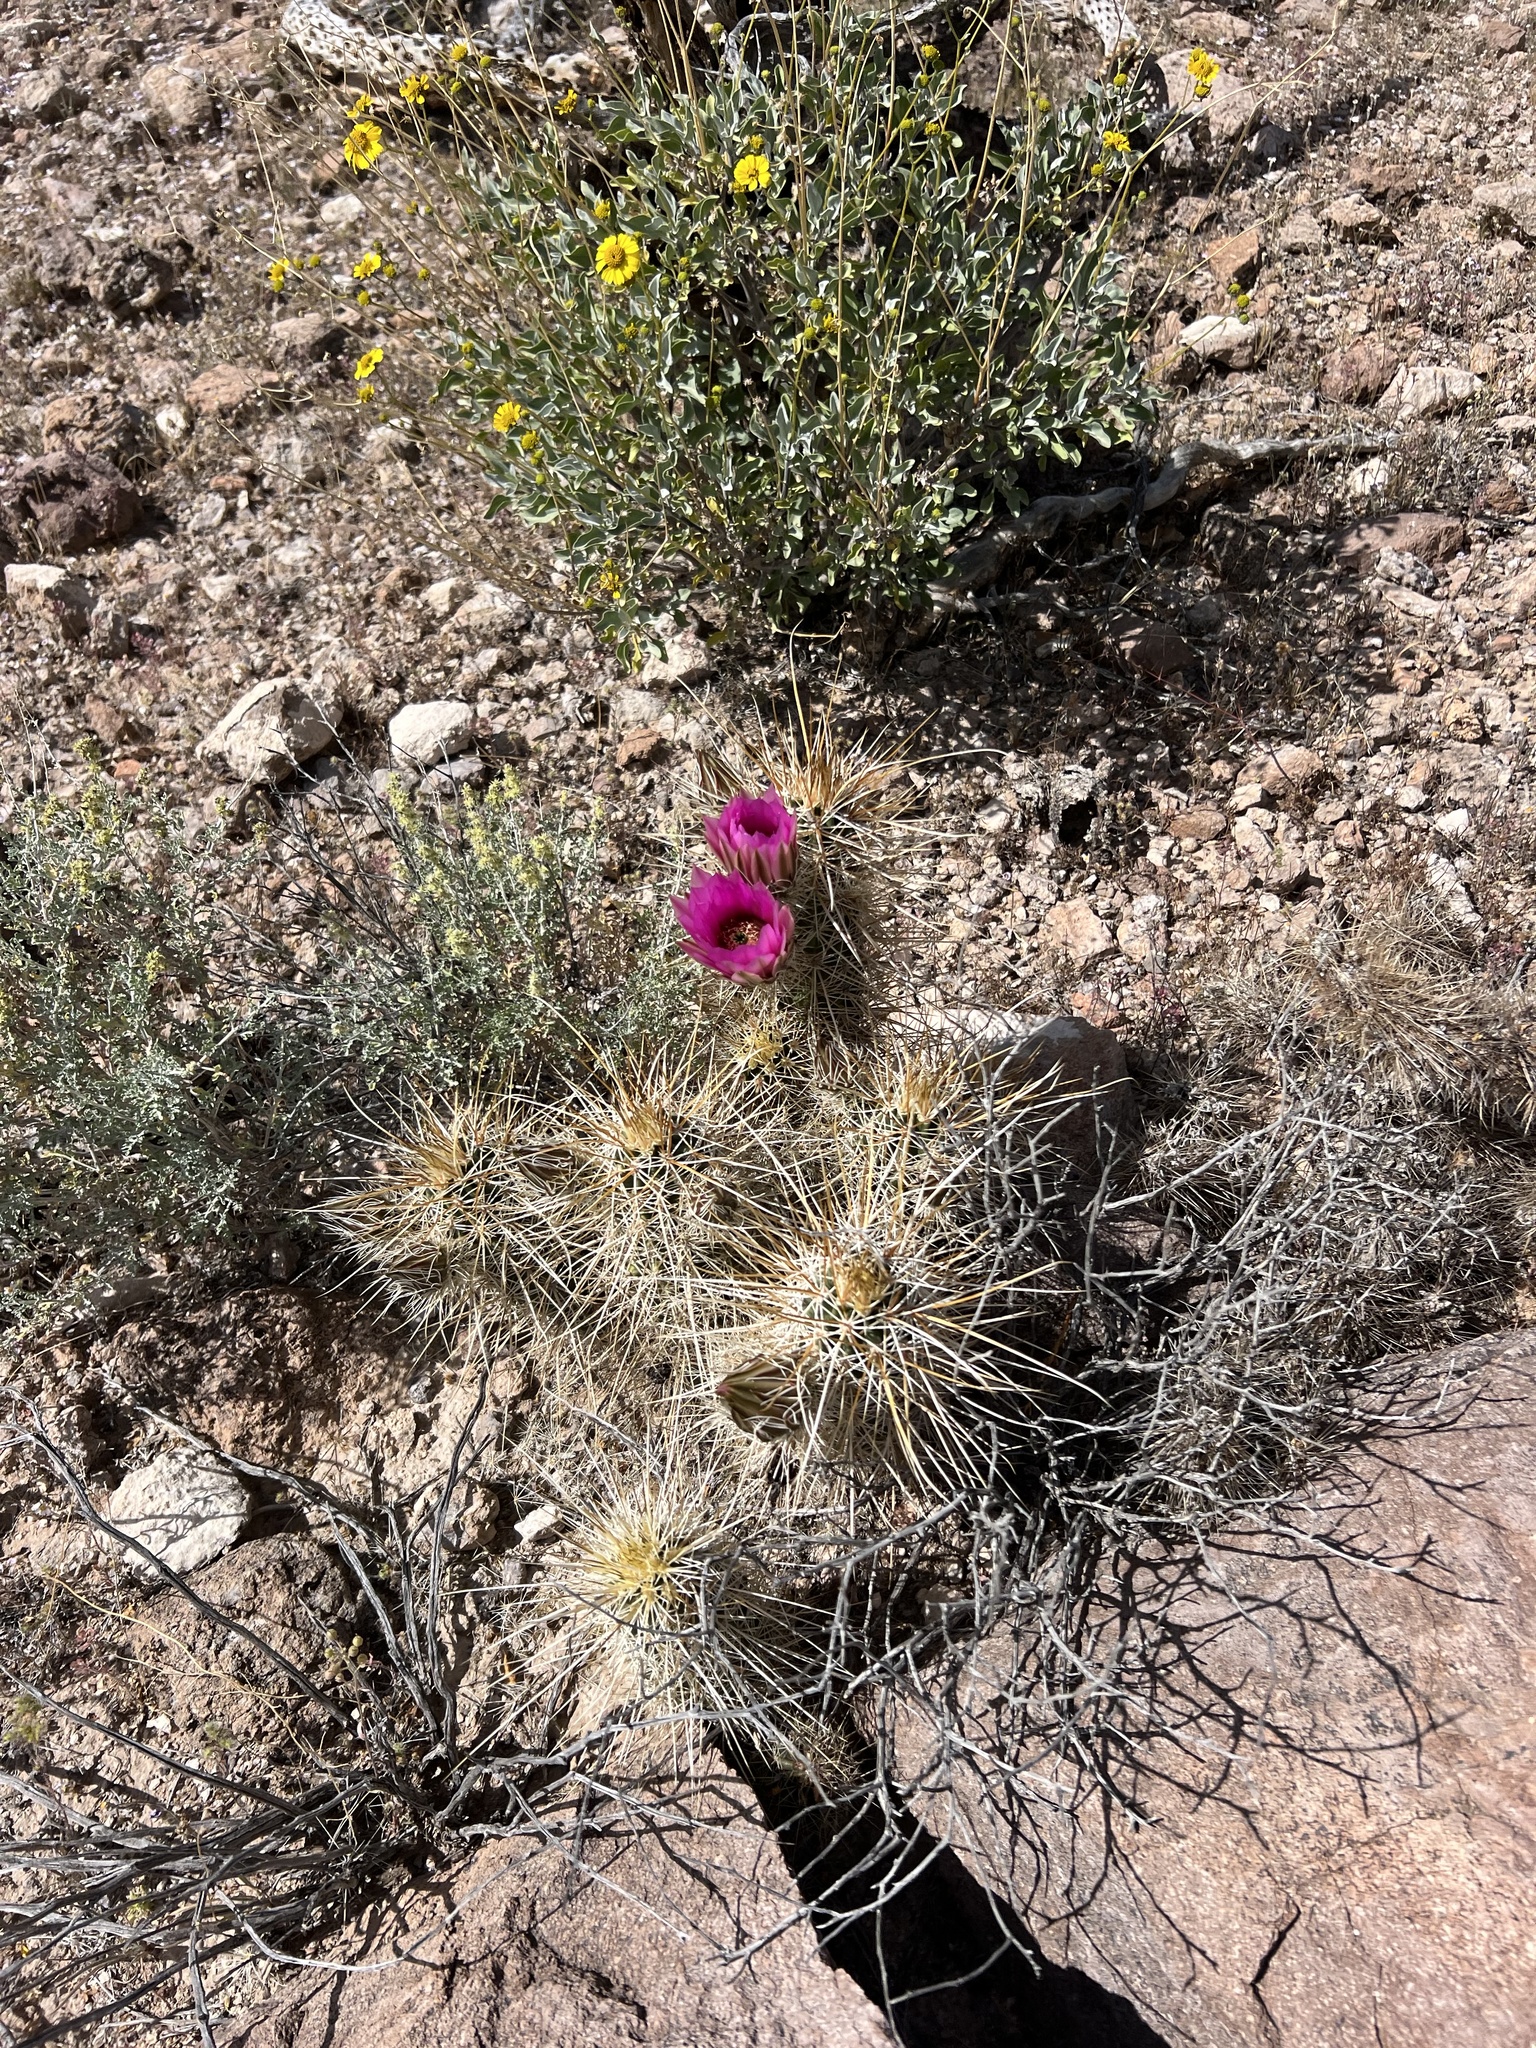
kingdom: Plantae
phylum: Tracheophyta
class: Magnoliopsida
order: Caryophyllales
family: Cactaceae
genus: Echinocereus
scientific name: Echinocereus engelmannii
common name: Engelmann's hedgehog cactus
